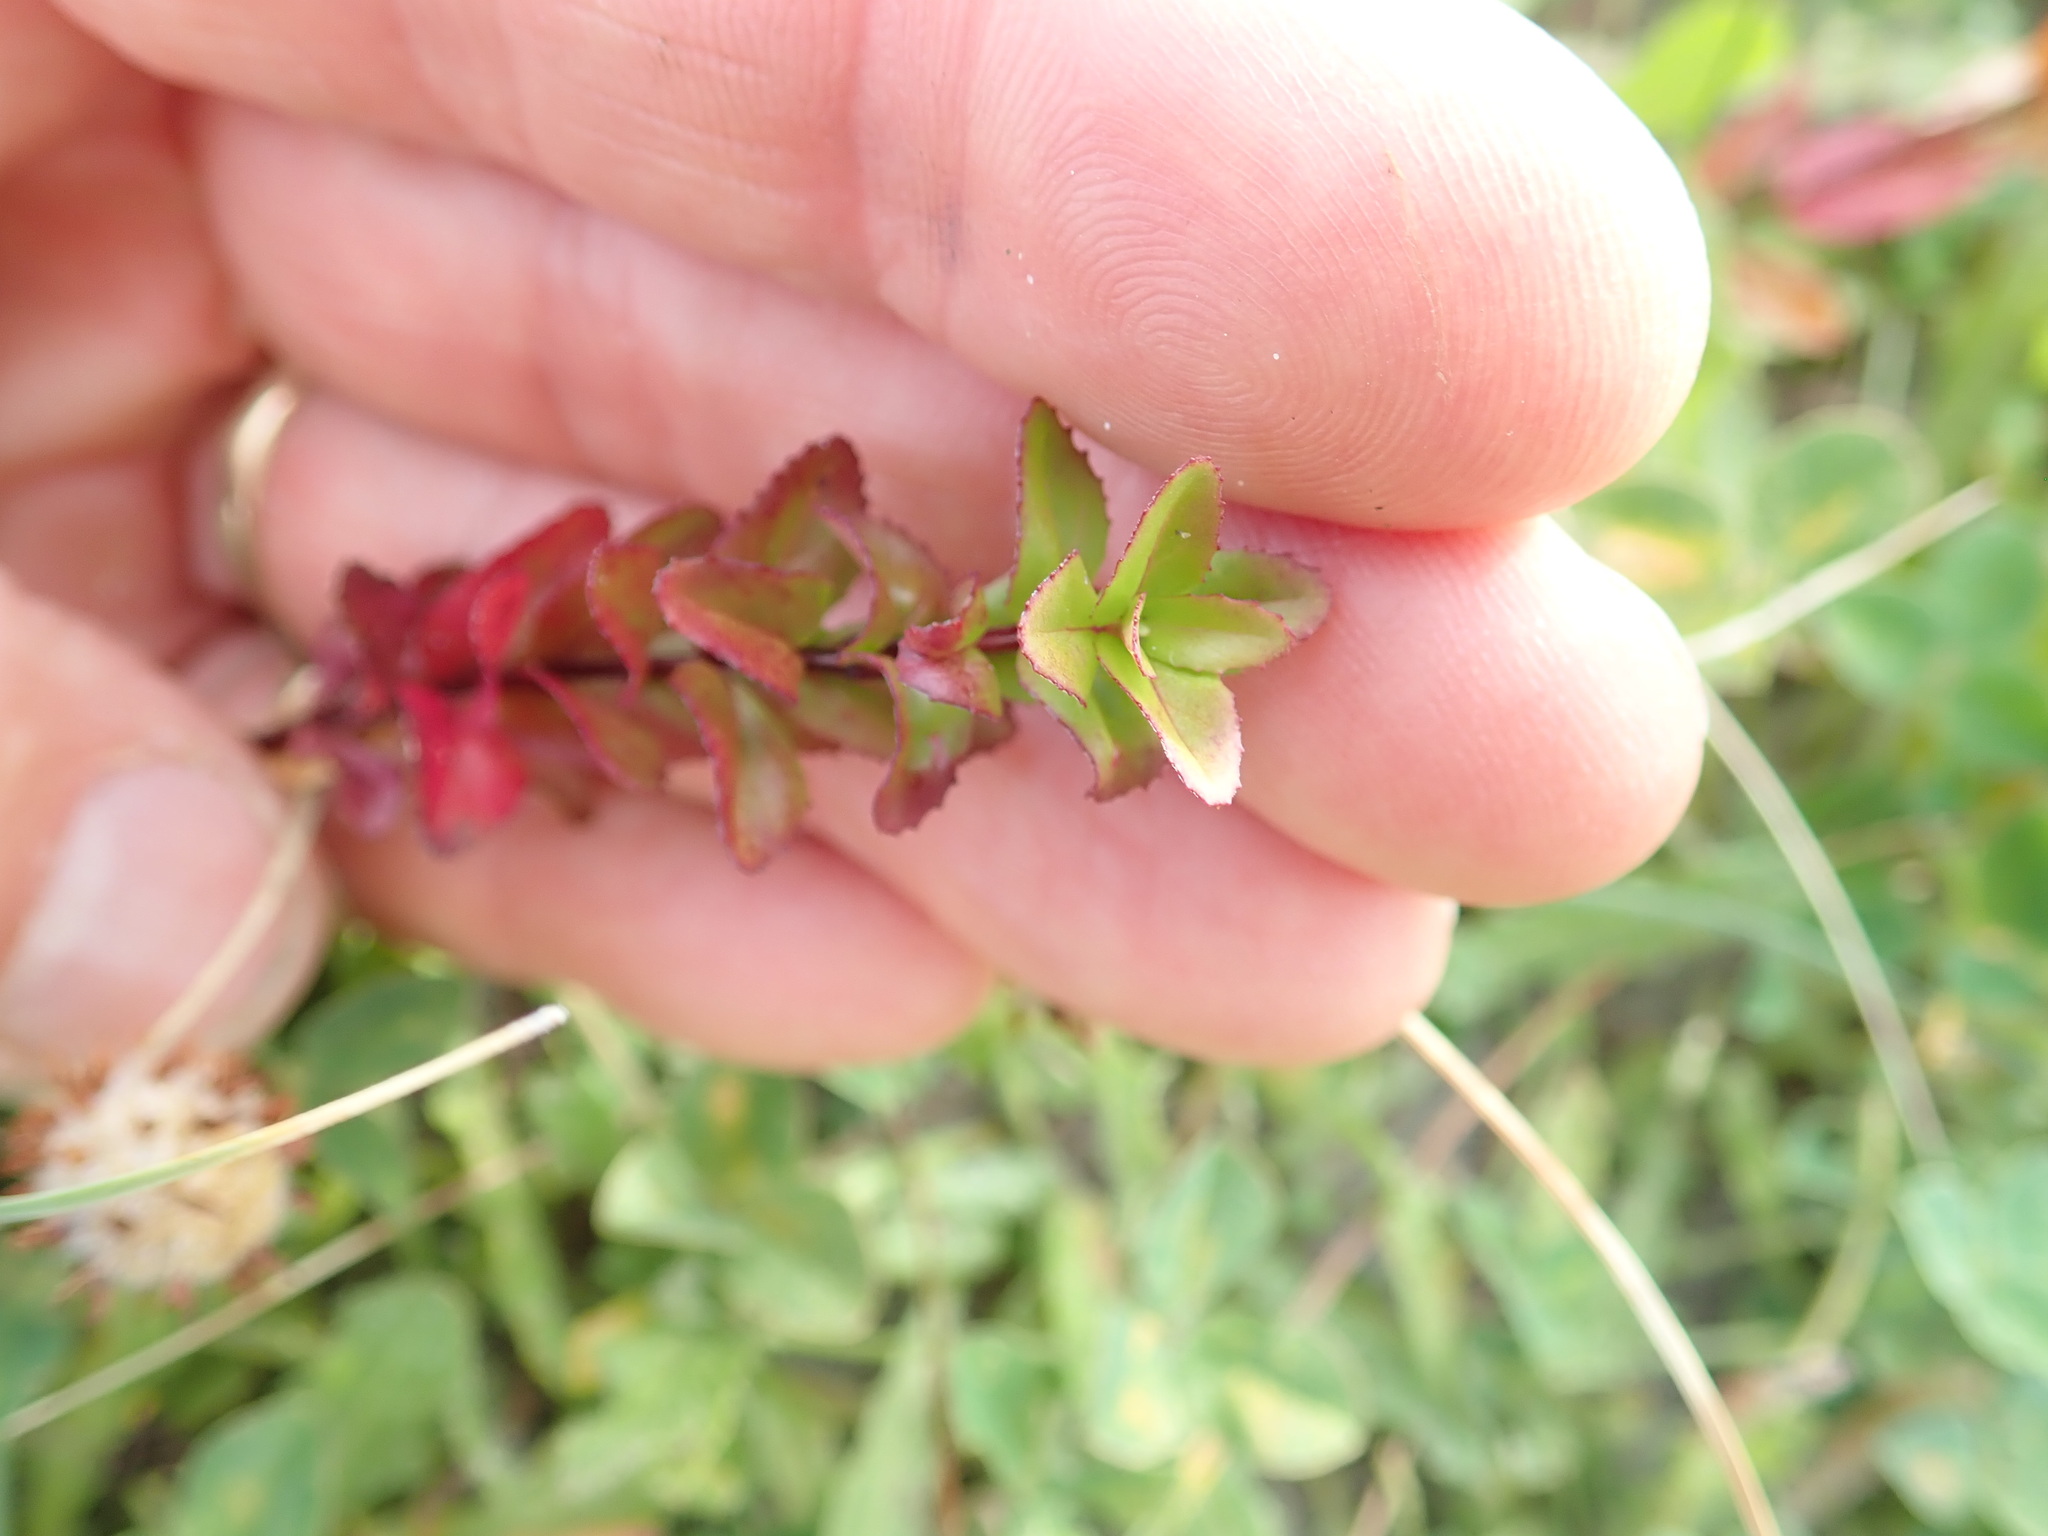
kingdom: Plantae
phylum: Tracheophyta
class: Magnoliopsida
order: Myrtales
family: Onagraceae
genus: Epilobium
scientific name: Epilobium billardiereanum
